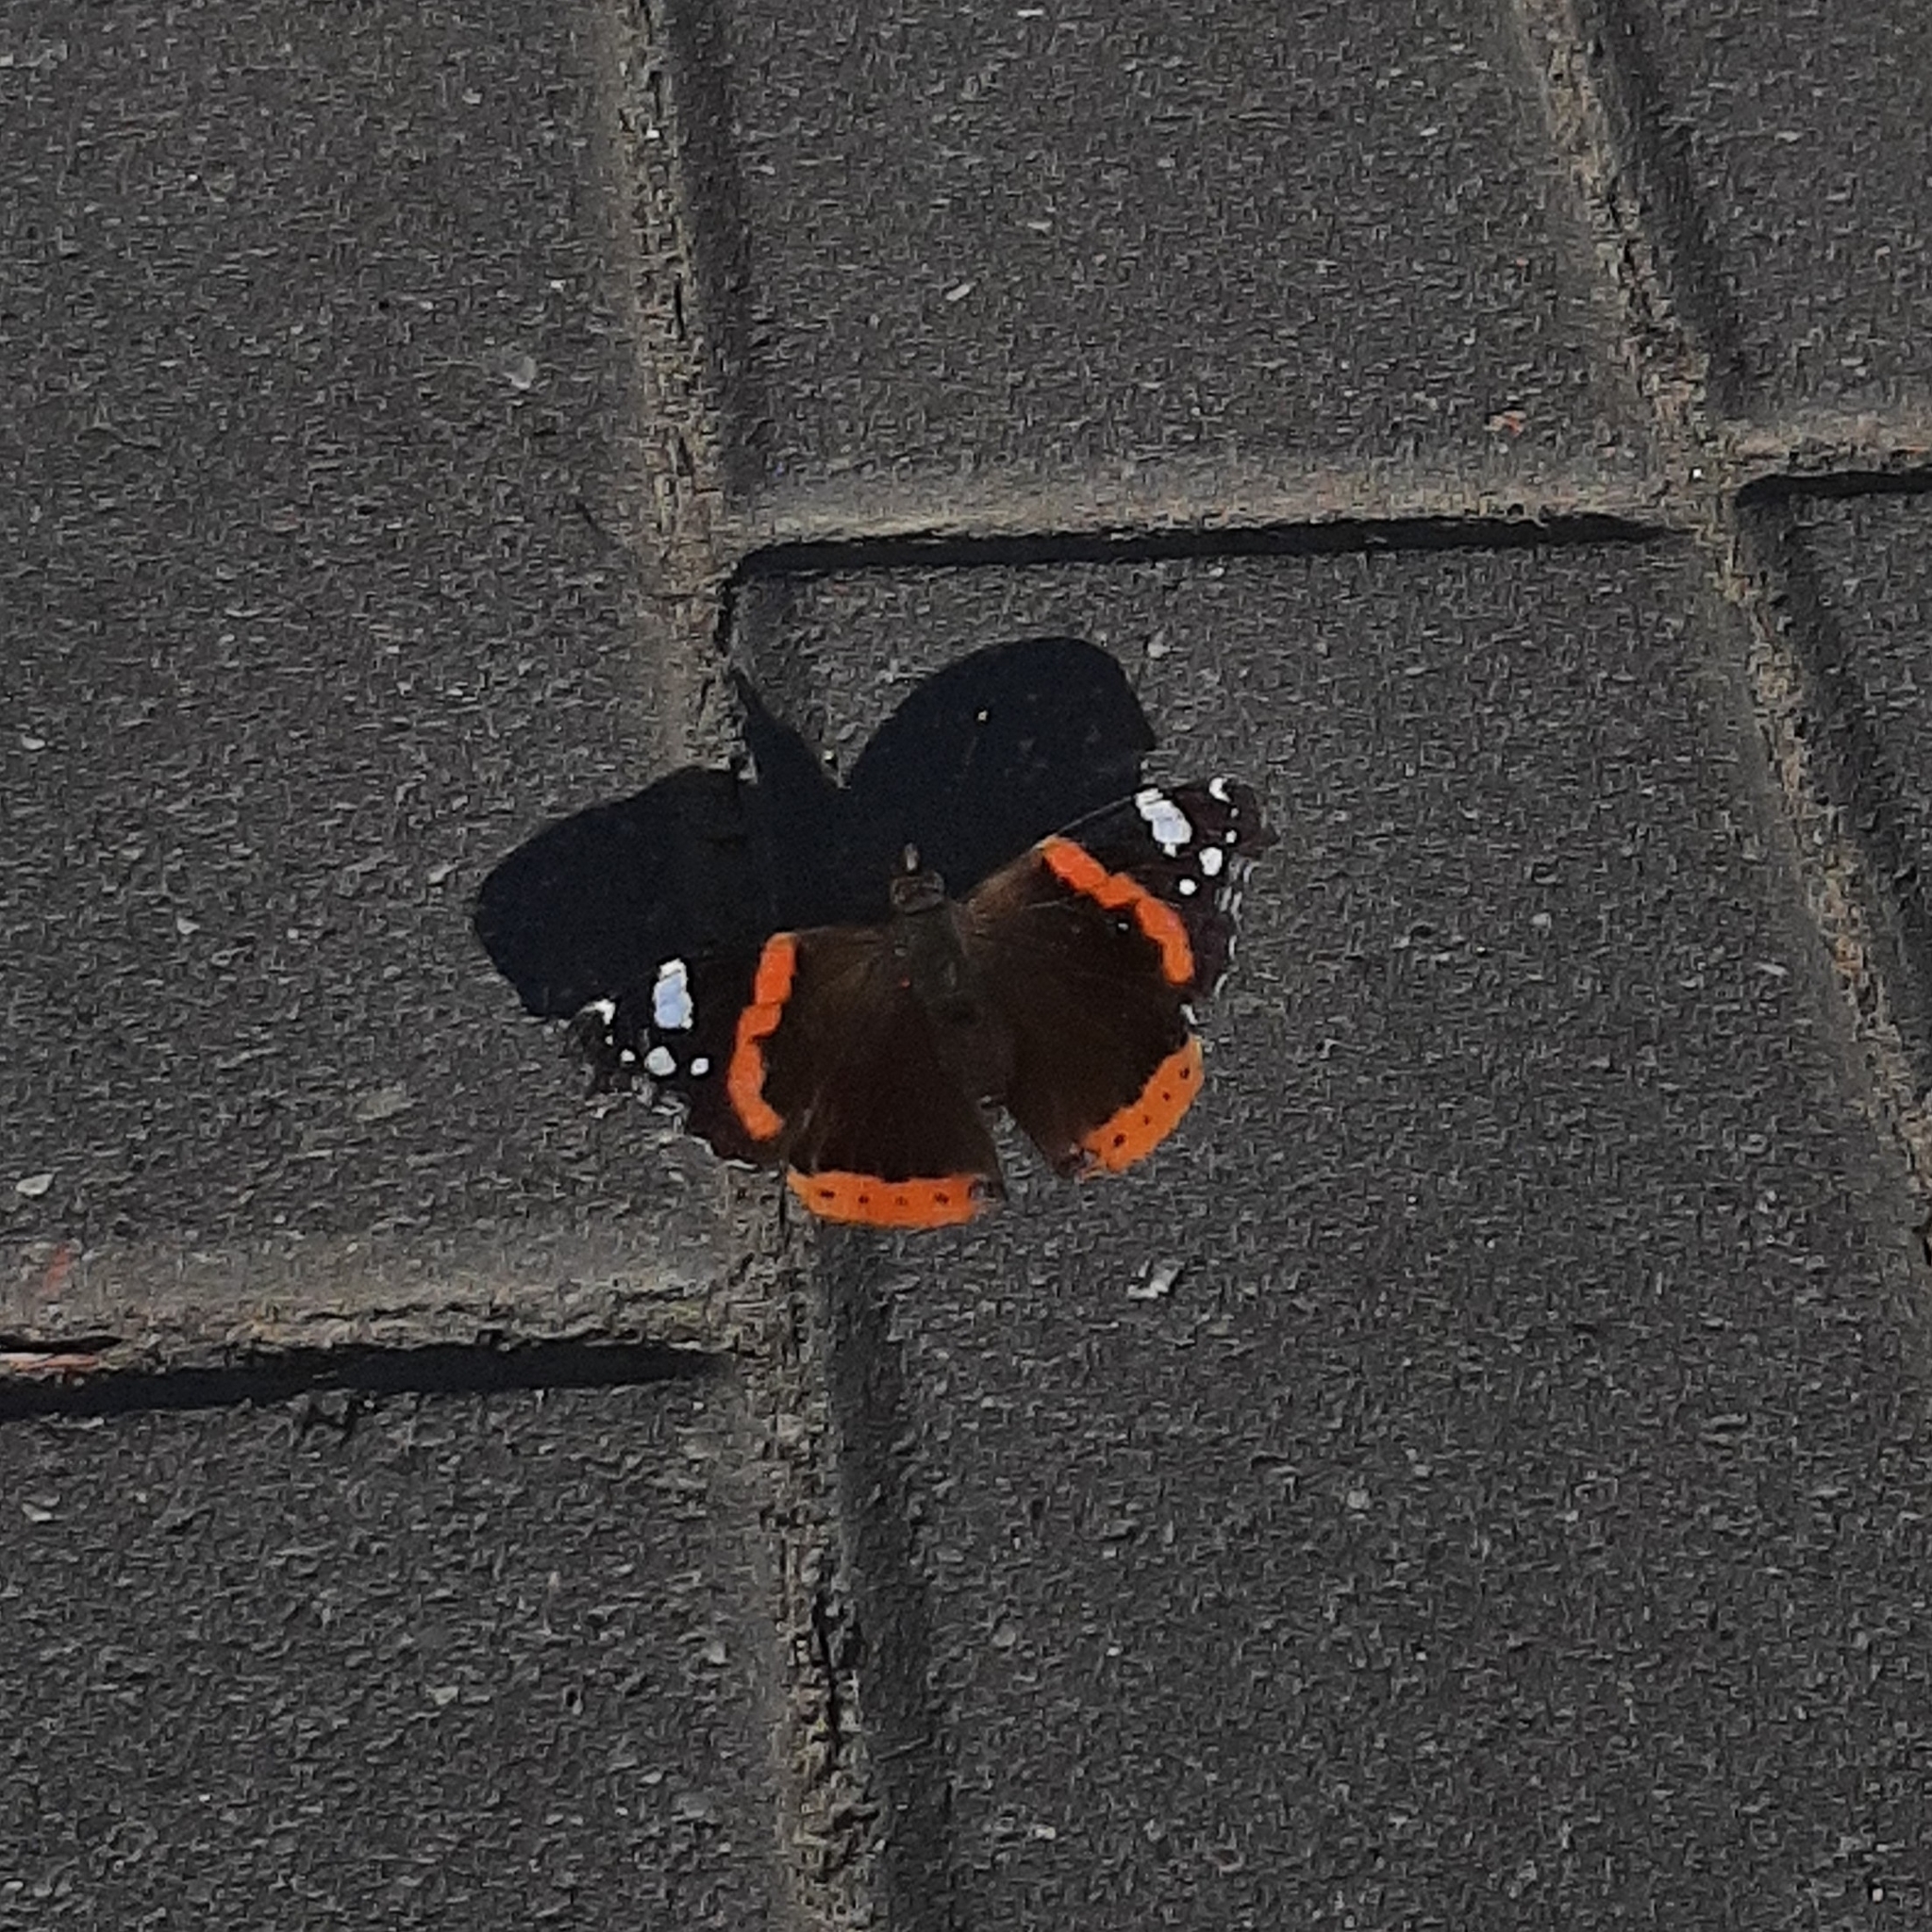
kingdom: Animalia
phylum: Arthropoda
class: Insecta
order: Lepidoptera
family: Nymphalidae
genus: Vanessa
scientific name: Vanessa atalanta
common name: Red admiral
